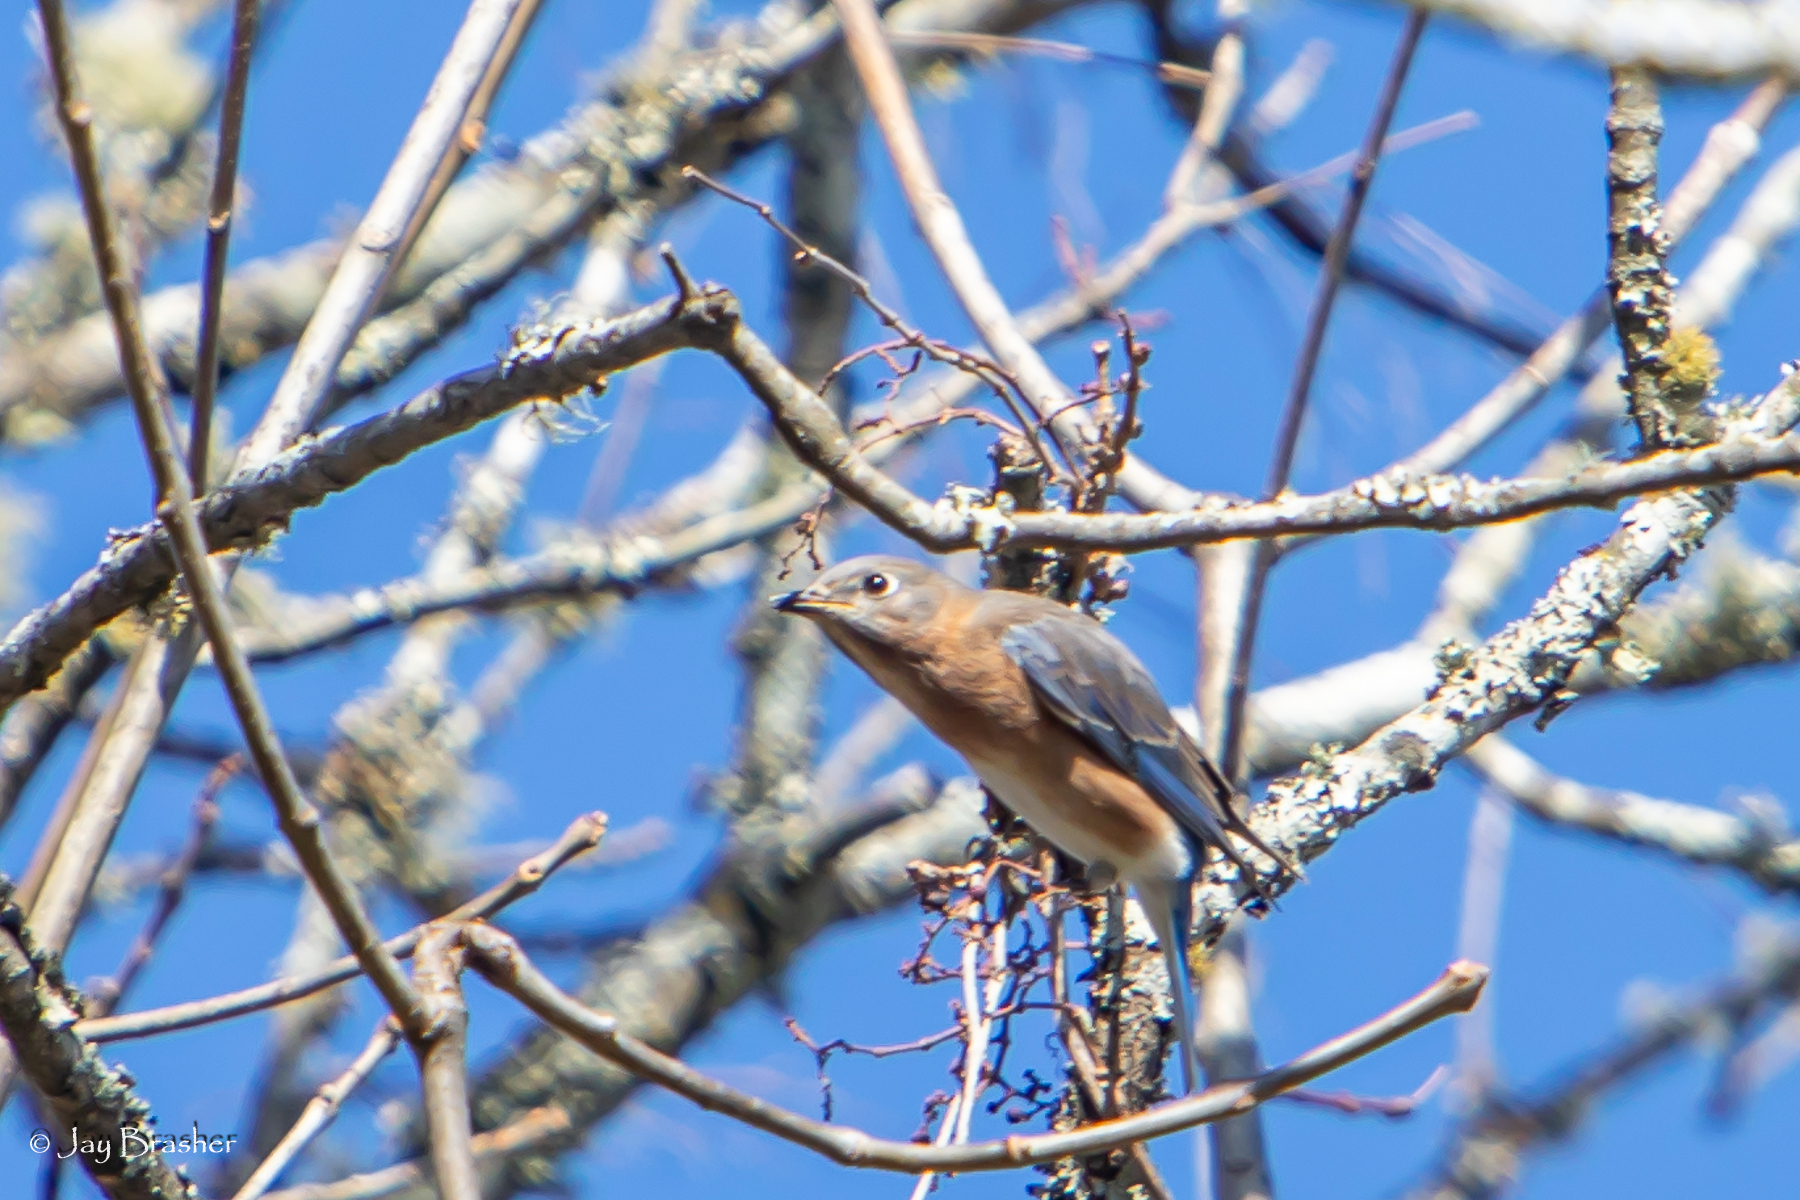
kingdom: Animalia
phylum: Chordata
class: Aves
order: Passeriformes
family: Turdidae
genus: Sialia
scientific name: Sialia sialis
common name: Eastern bluebird
